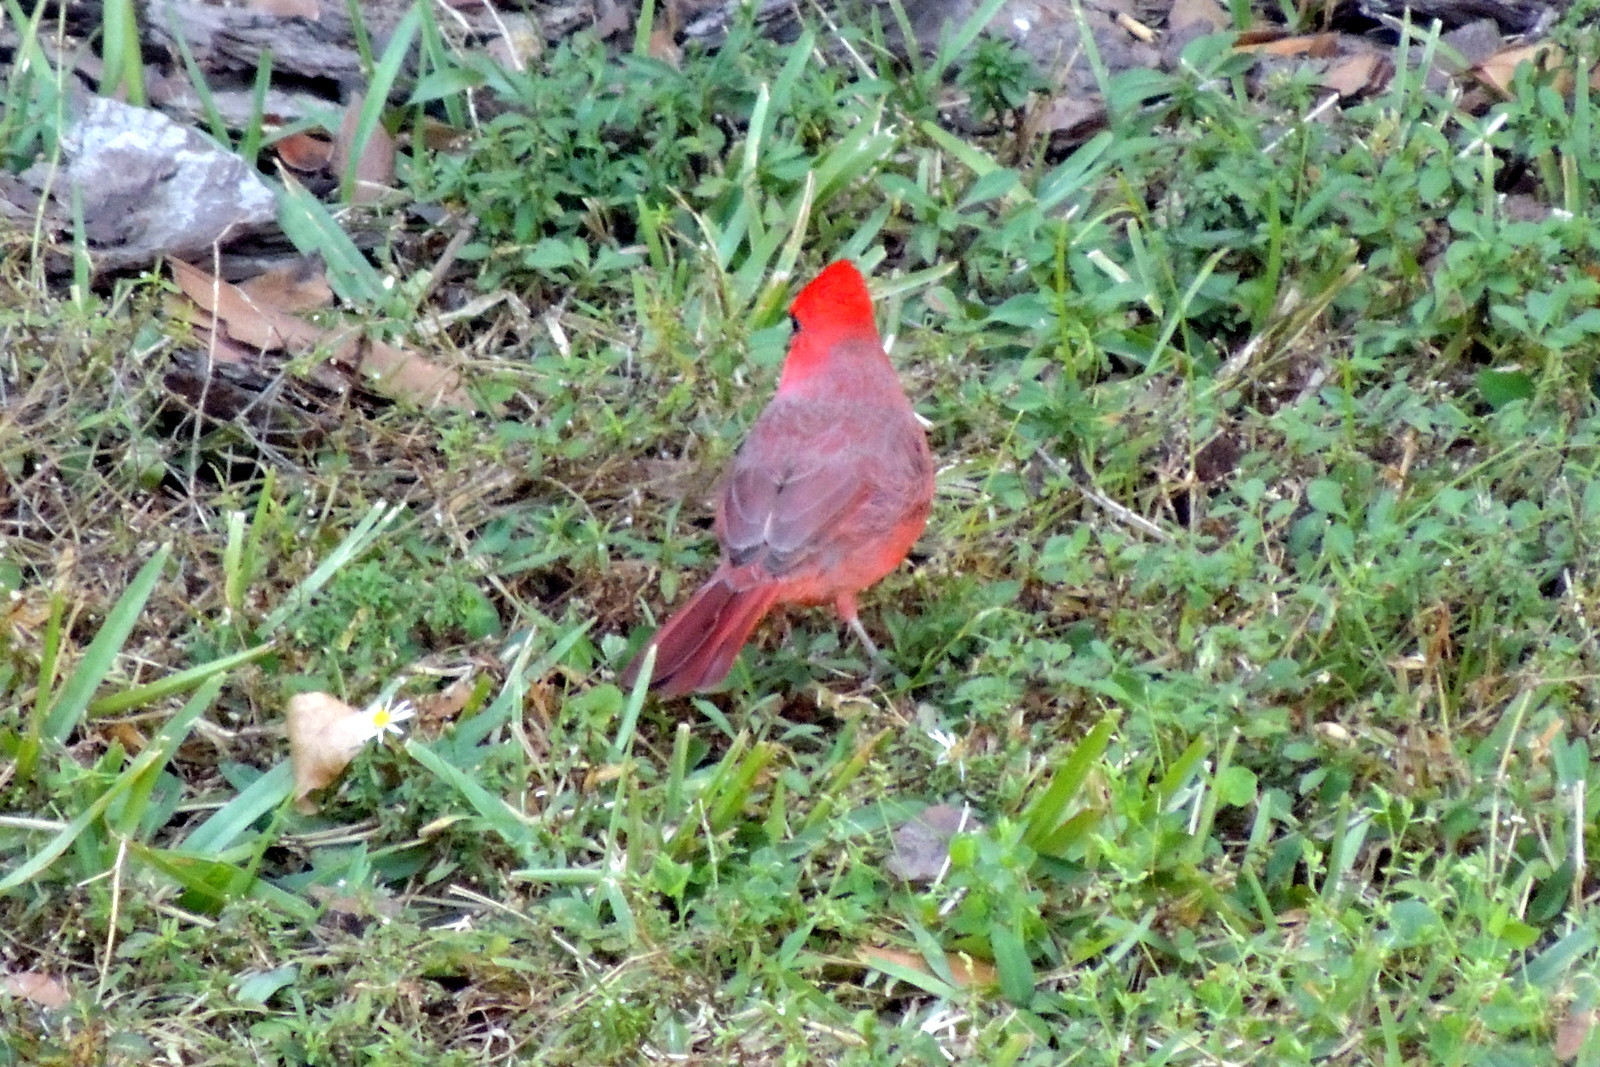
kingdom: Animalia
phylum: Chordata
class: Aves
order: Passeriformes
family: Cardinalidae
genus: Cardinalis
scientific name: Cardinalis cardinalis
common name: Northern cardinal
